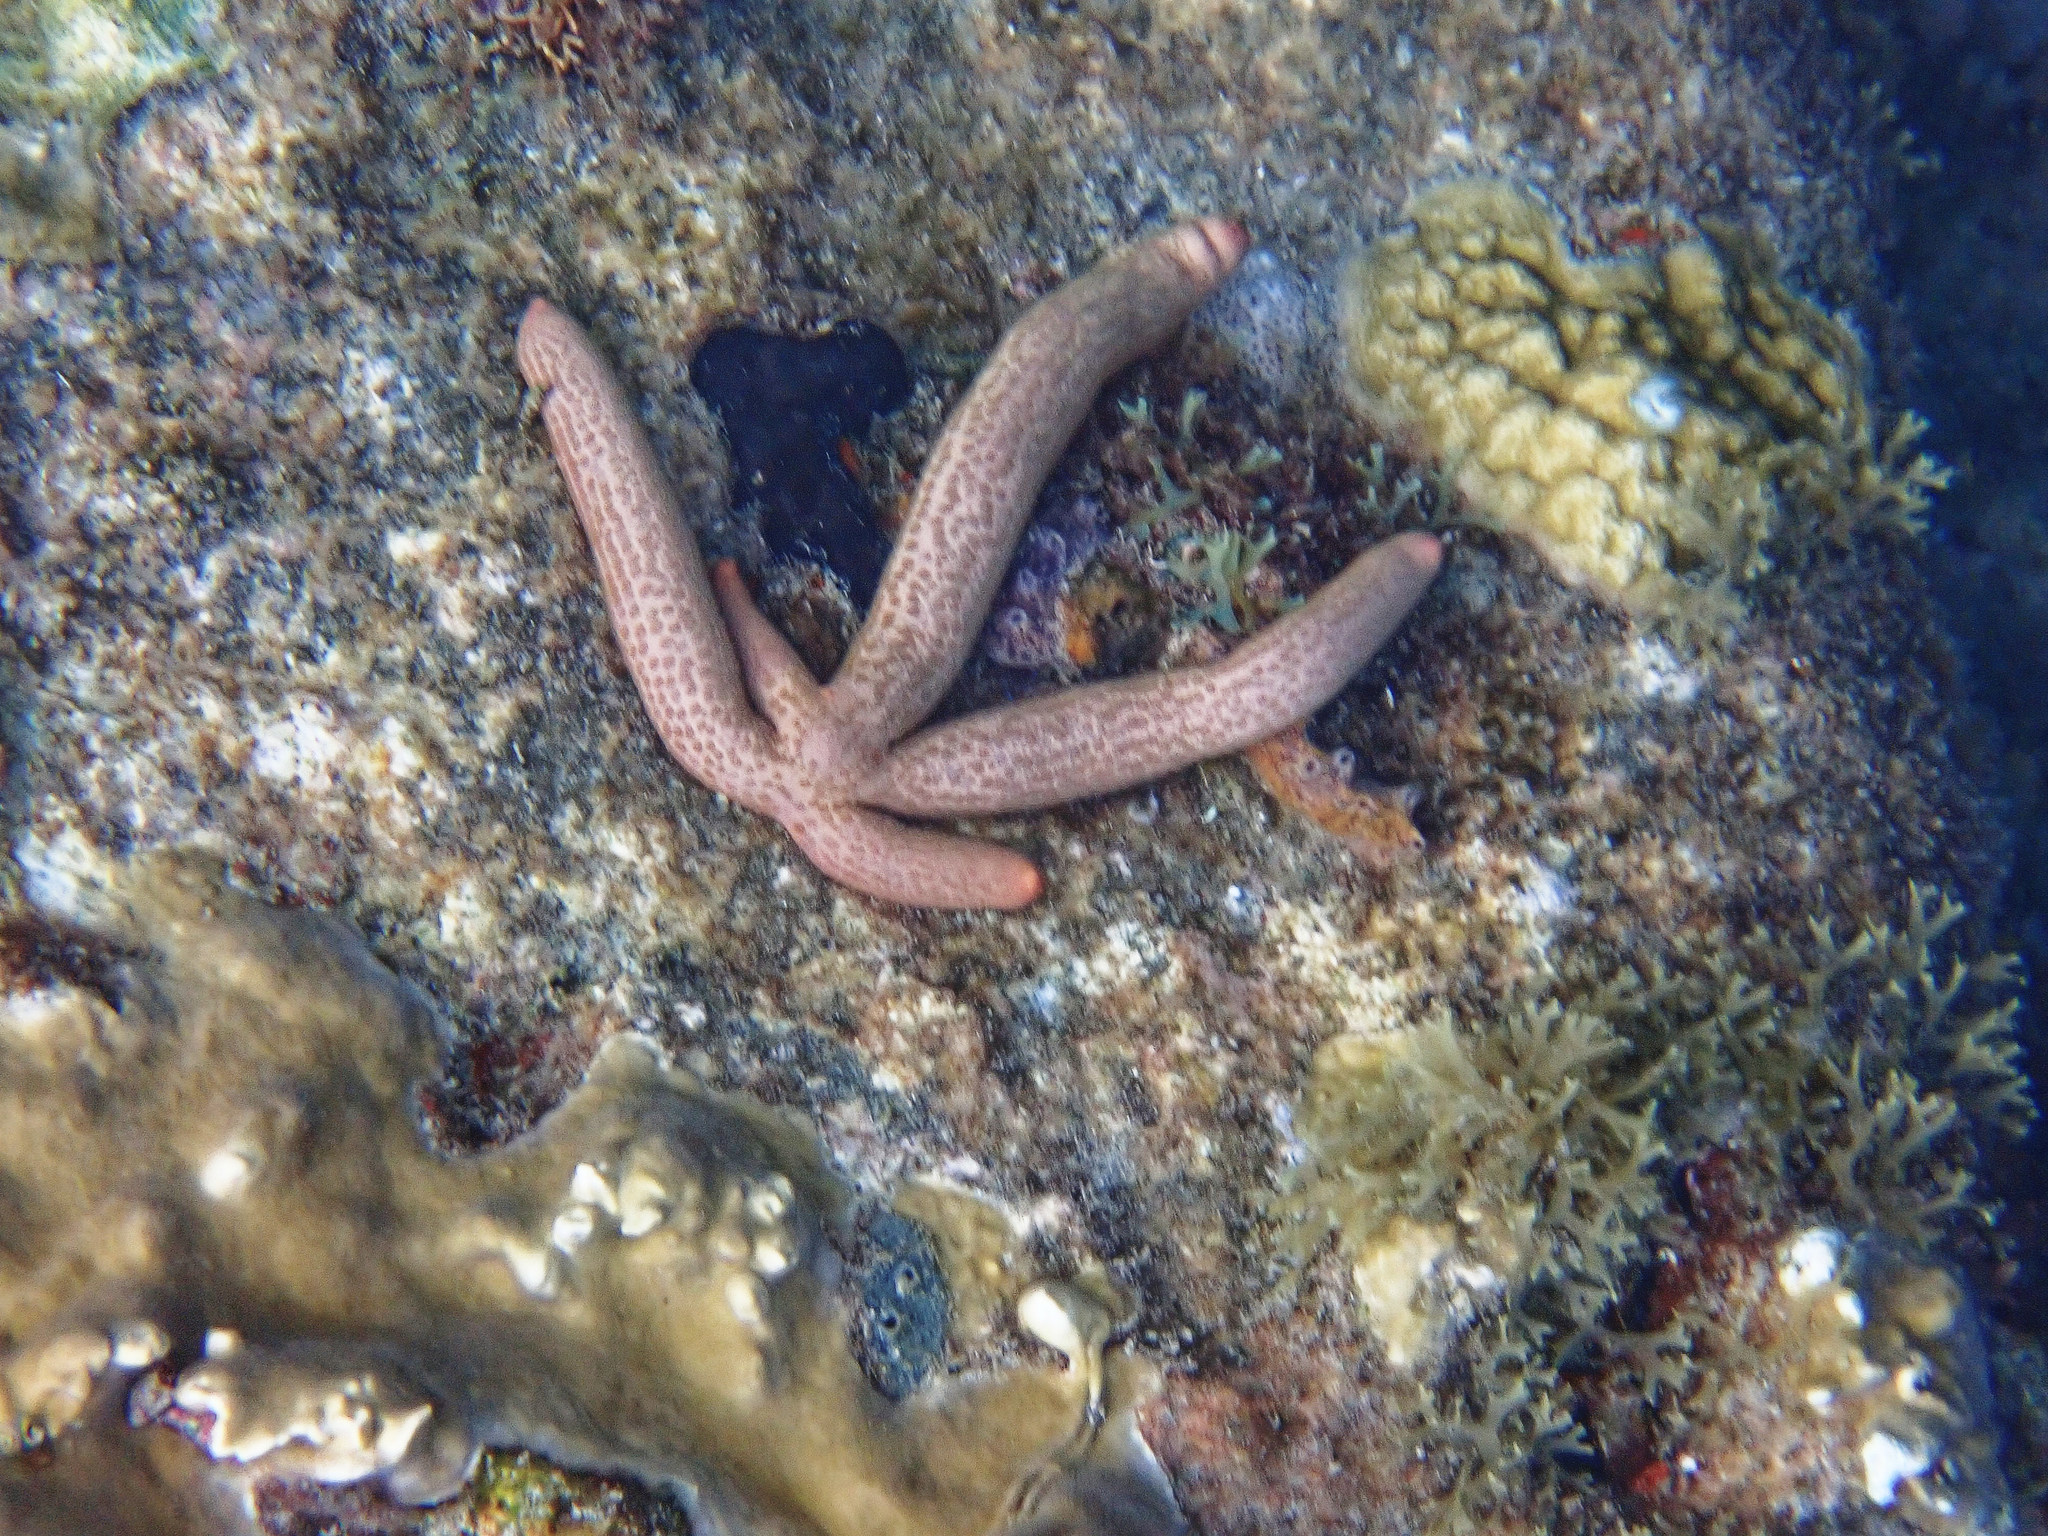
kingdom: Animalia
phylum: Echinodermata
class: Asteroidea
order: Valvatida
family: Ophidiasteridae
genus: Linckia
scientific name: Linckia guildingi
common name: Common comet star
